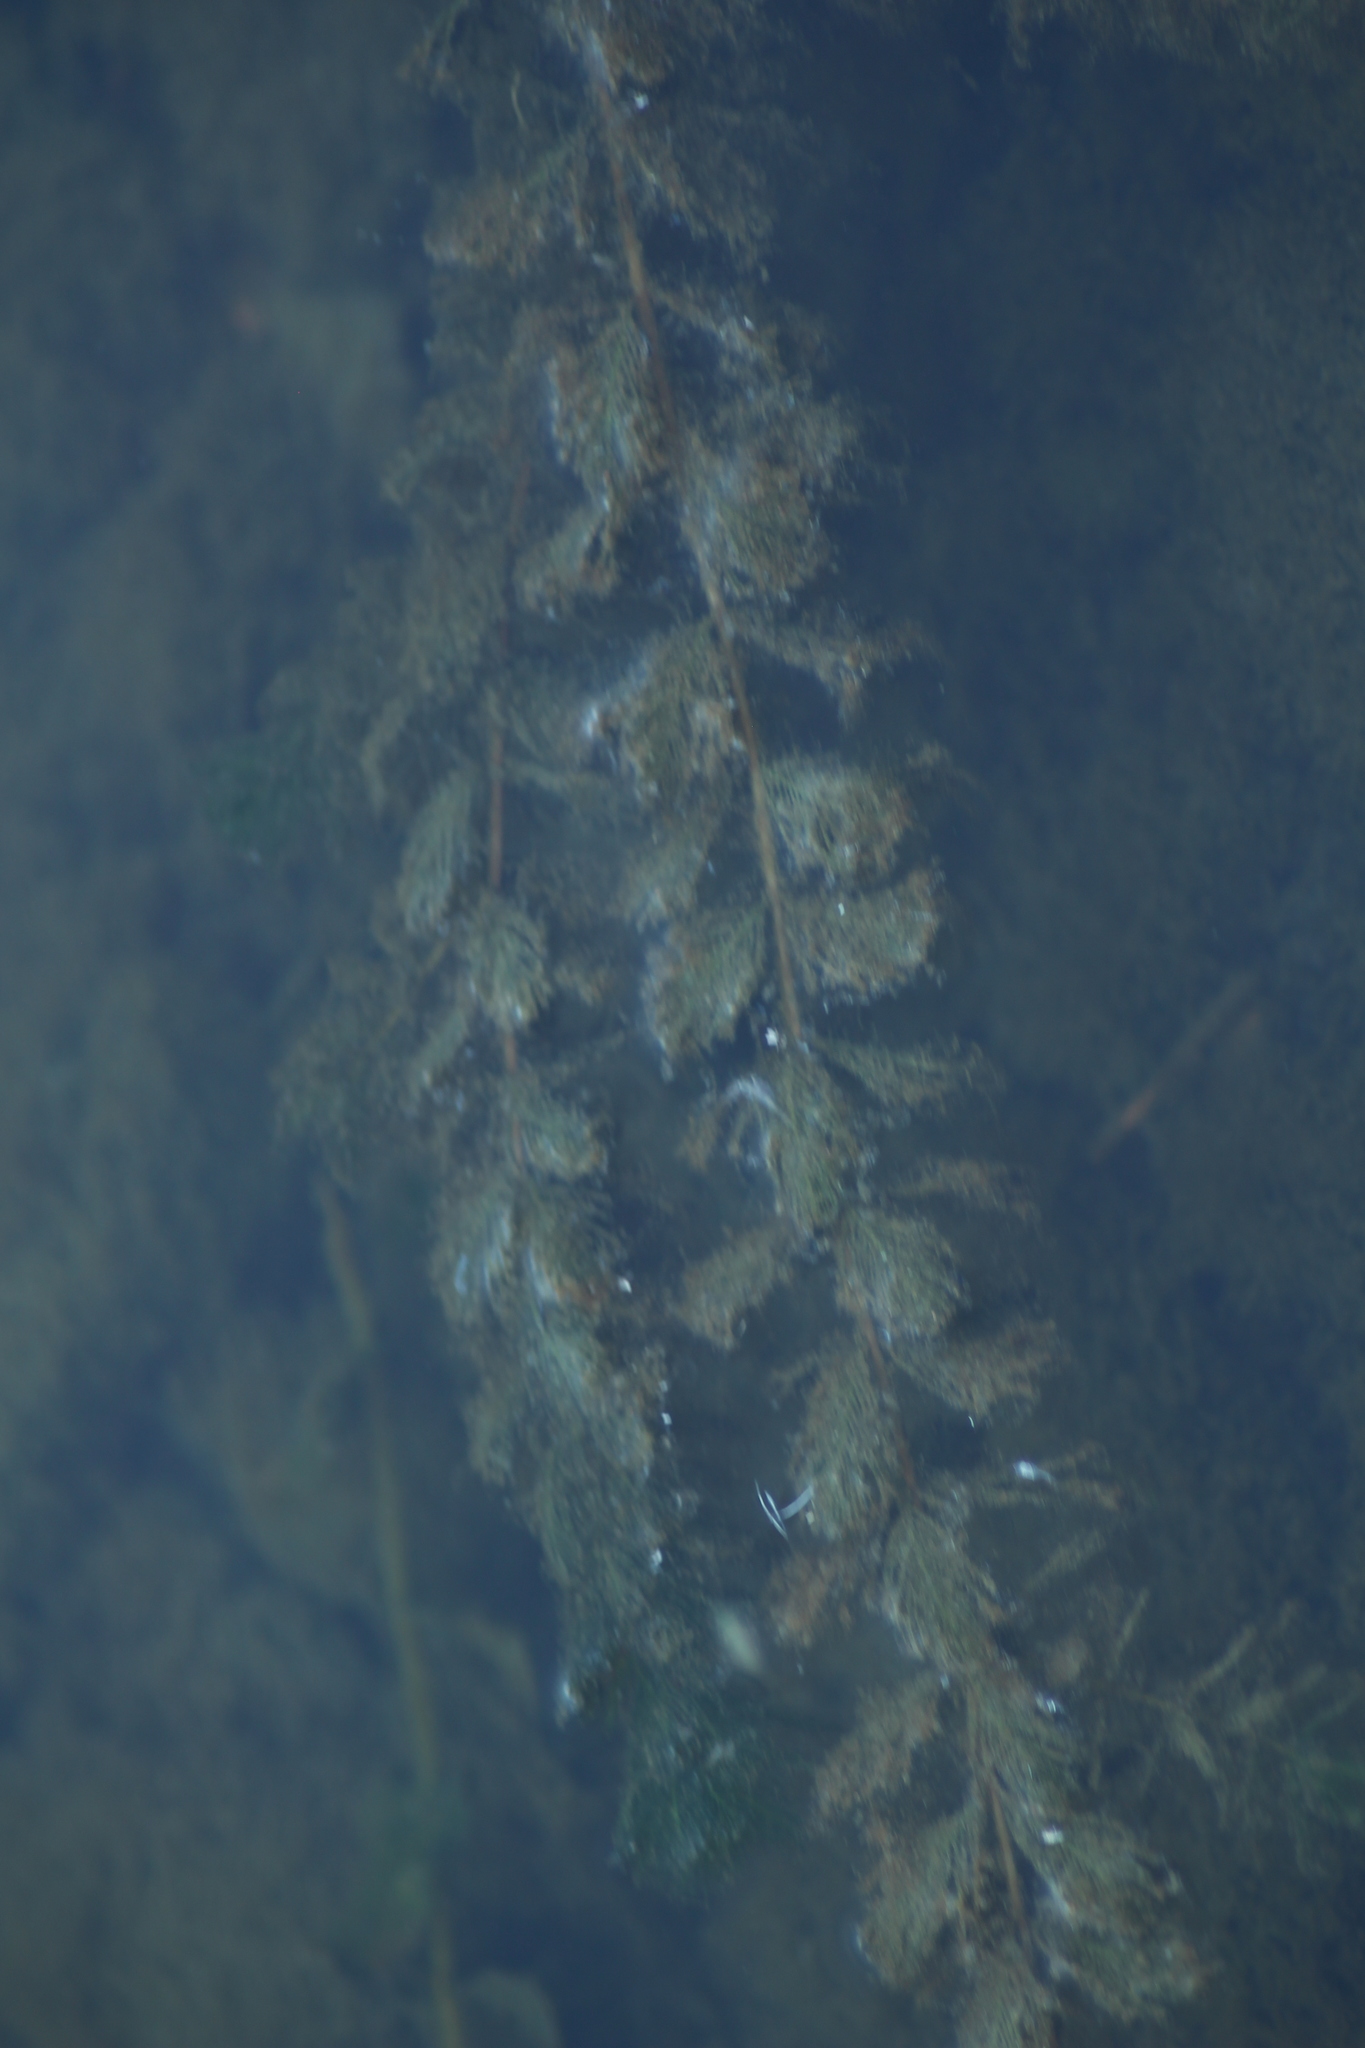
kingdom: Plantae
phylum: Tracheophyta
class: Magnoliopsida
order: Saxifragales
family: Haloragaceae
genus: Myriophyllum
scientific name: Myriophyllum spicatum
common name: Spiked water-milfoil
